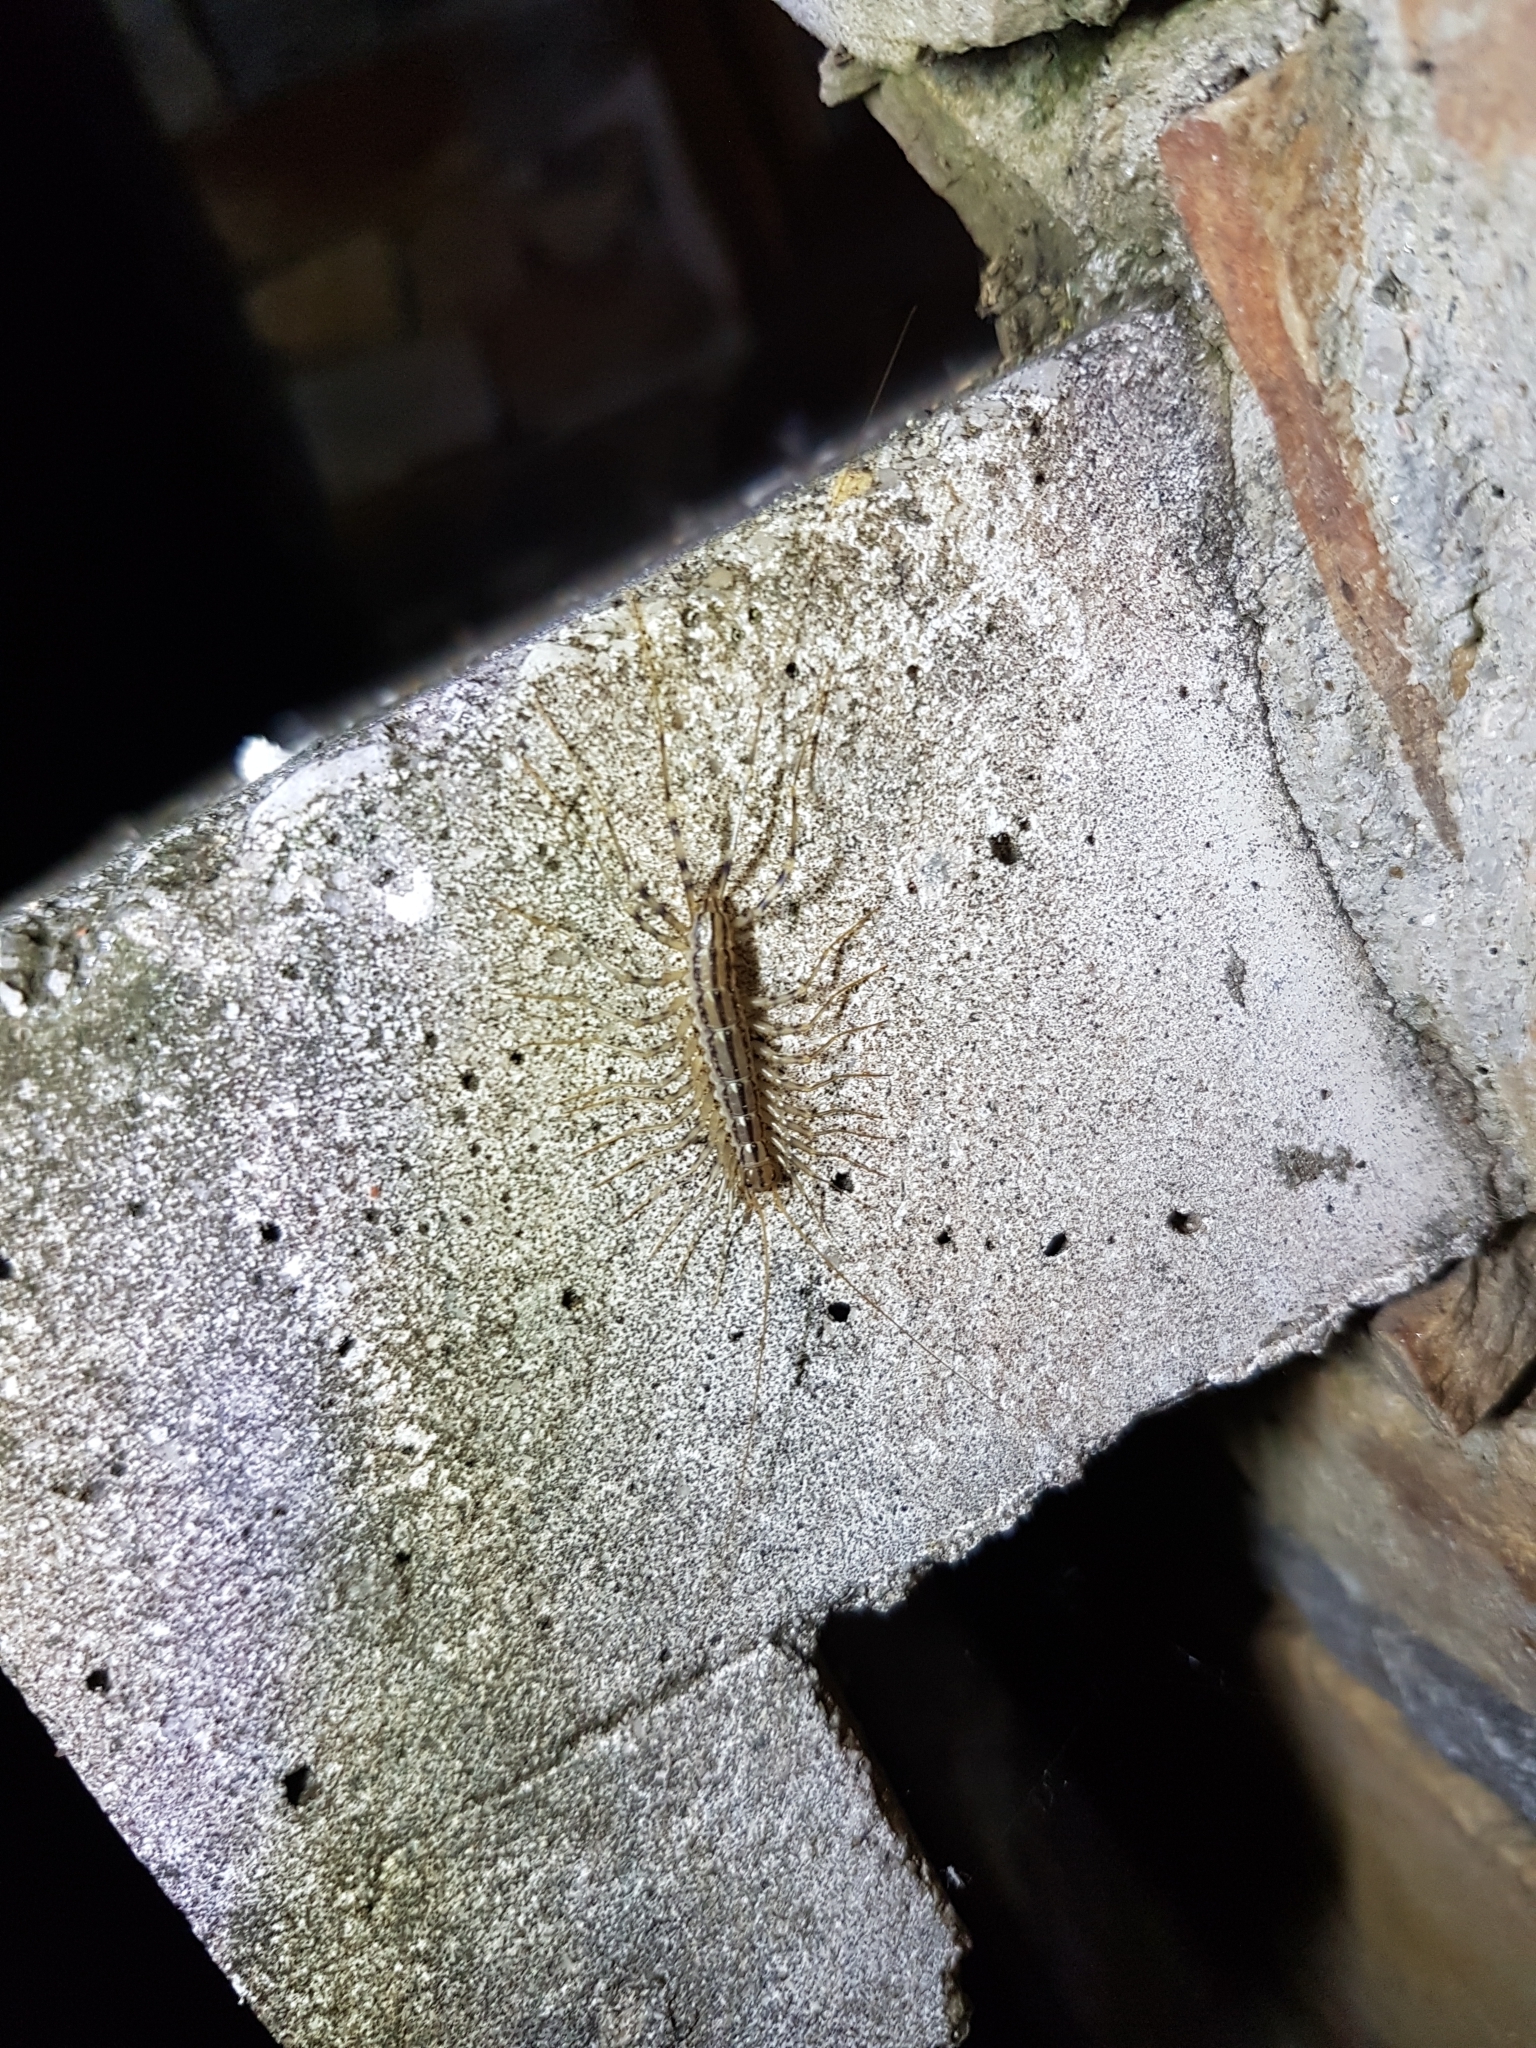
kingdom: Animalia
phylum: Arthropoda
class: Chilopoda
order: Scutigeromorpha
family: Scutigeridae
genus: Scutigera
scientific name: Scutigera coleoptrata
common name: House centipede
